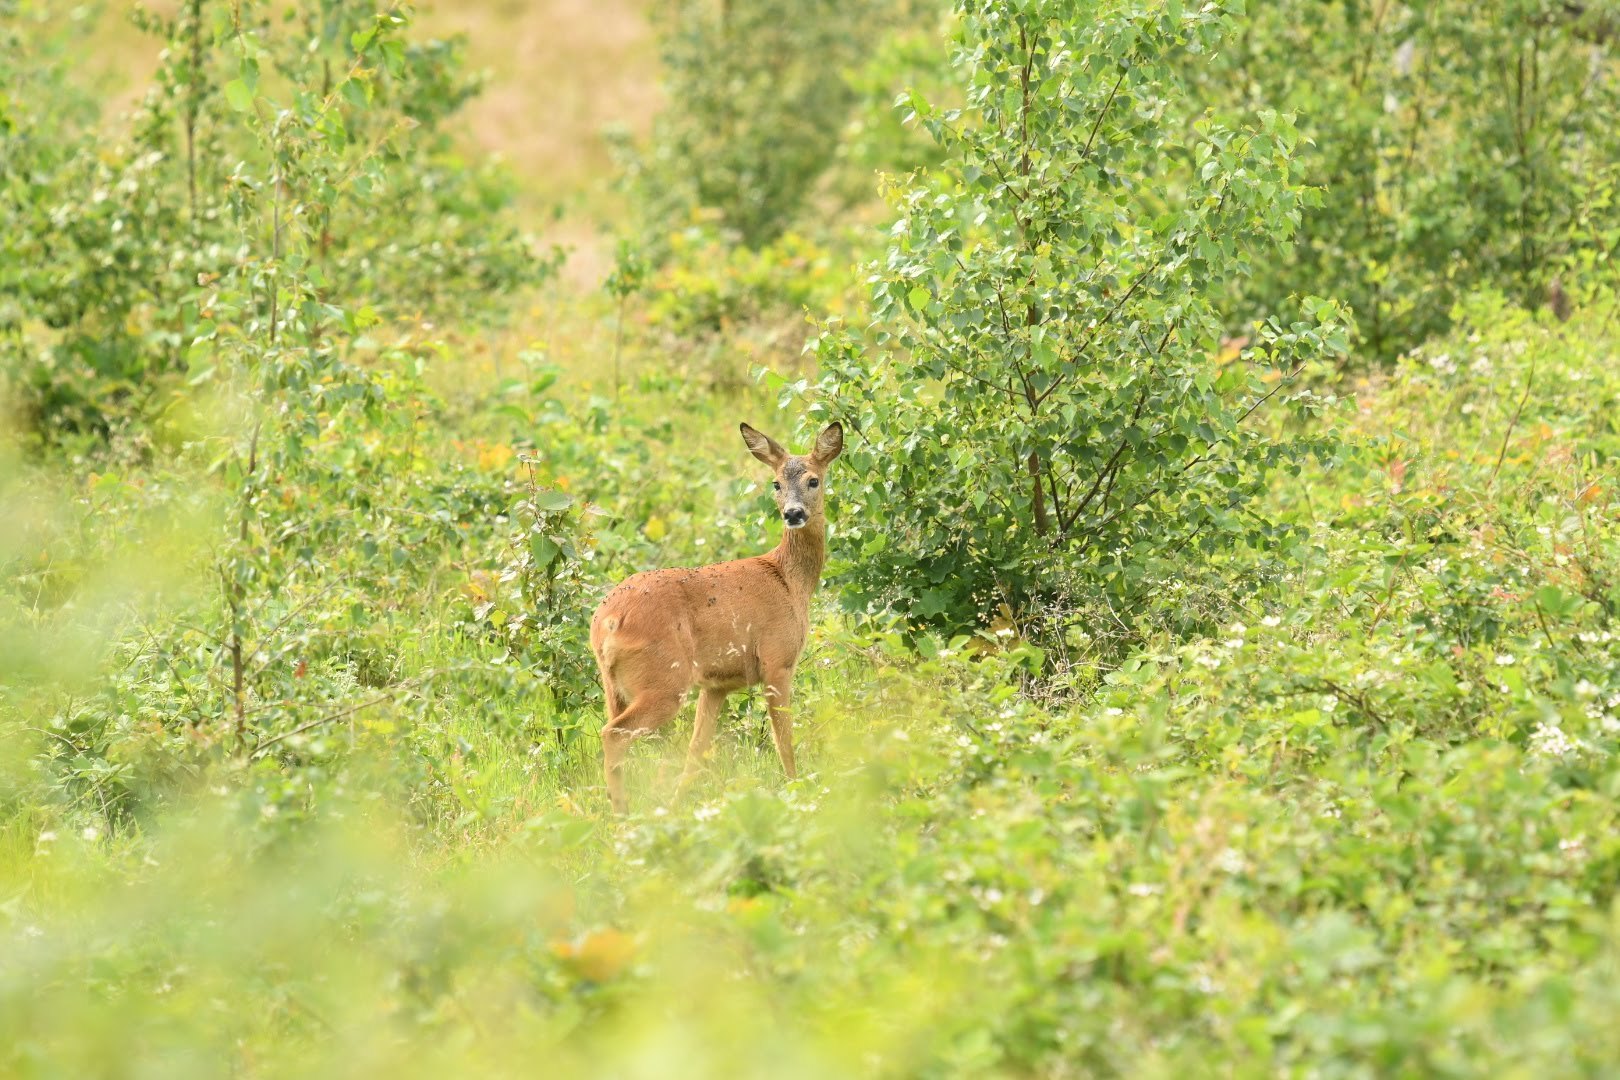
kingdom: Animalia
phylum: Chordata
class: Mammalia
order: Artiodactyla
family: Cervidae
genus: Capreolus
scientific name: Capreolus capreolus
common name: Western roe deer
